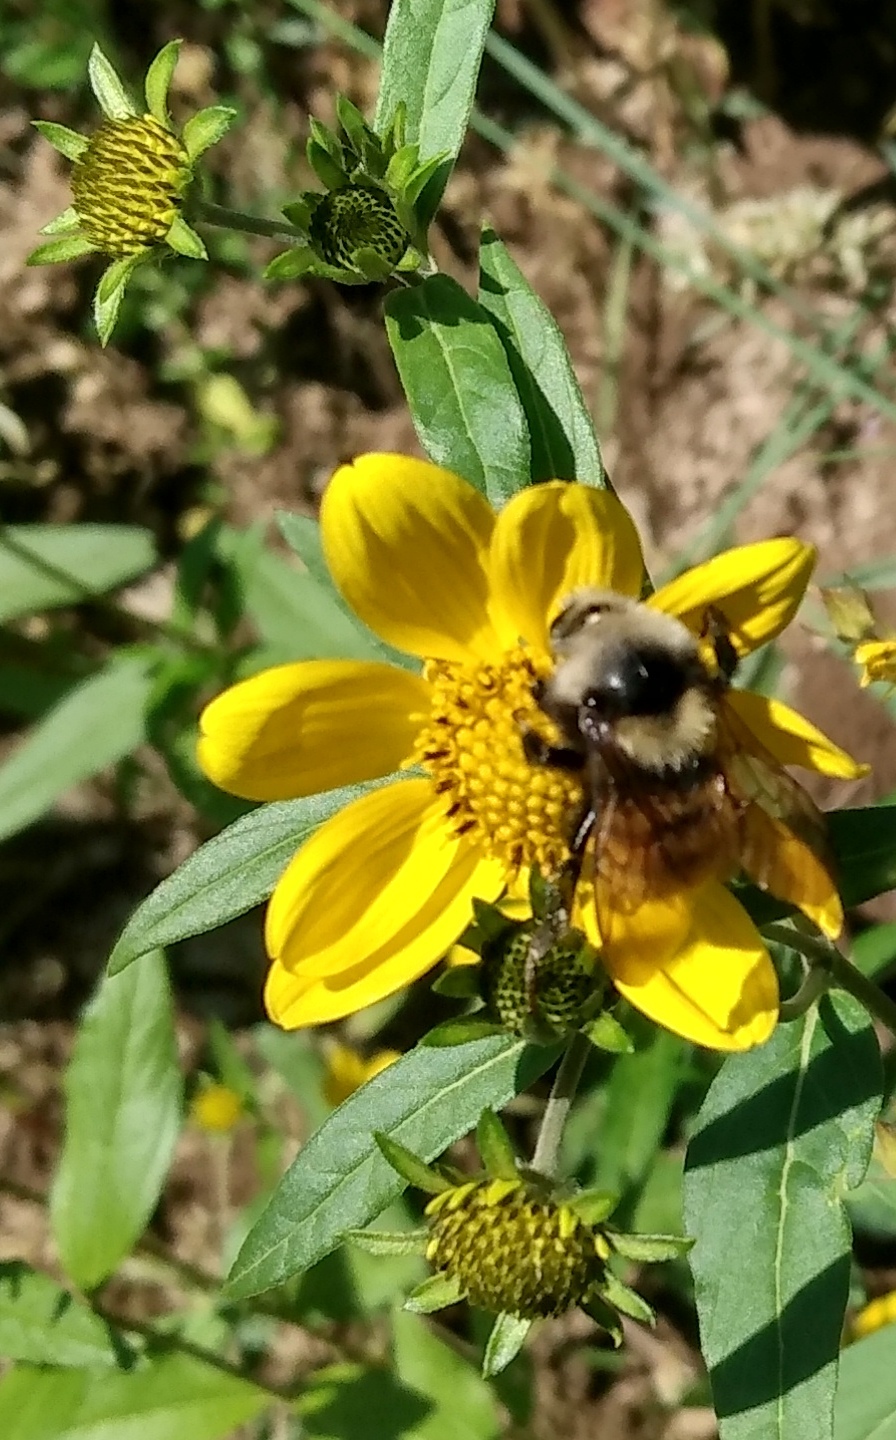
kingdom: Animalia
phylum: Arthropoda
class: Insecta
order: Hymenoptera
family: Apidae
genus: Bombus
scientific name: Bombus appositus
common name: White-shouldered bumble bee
